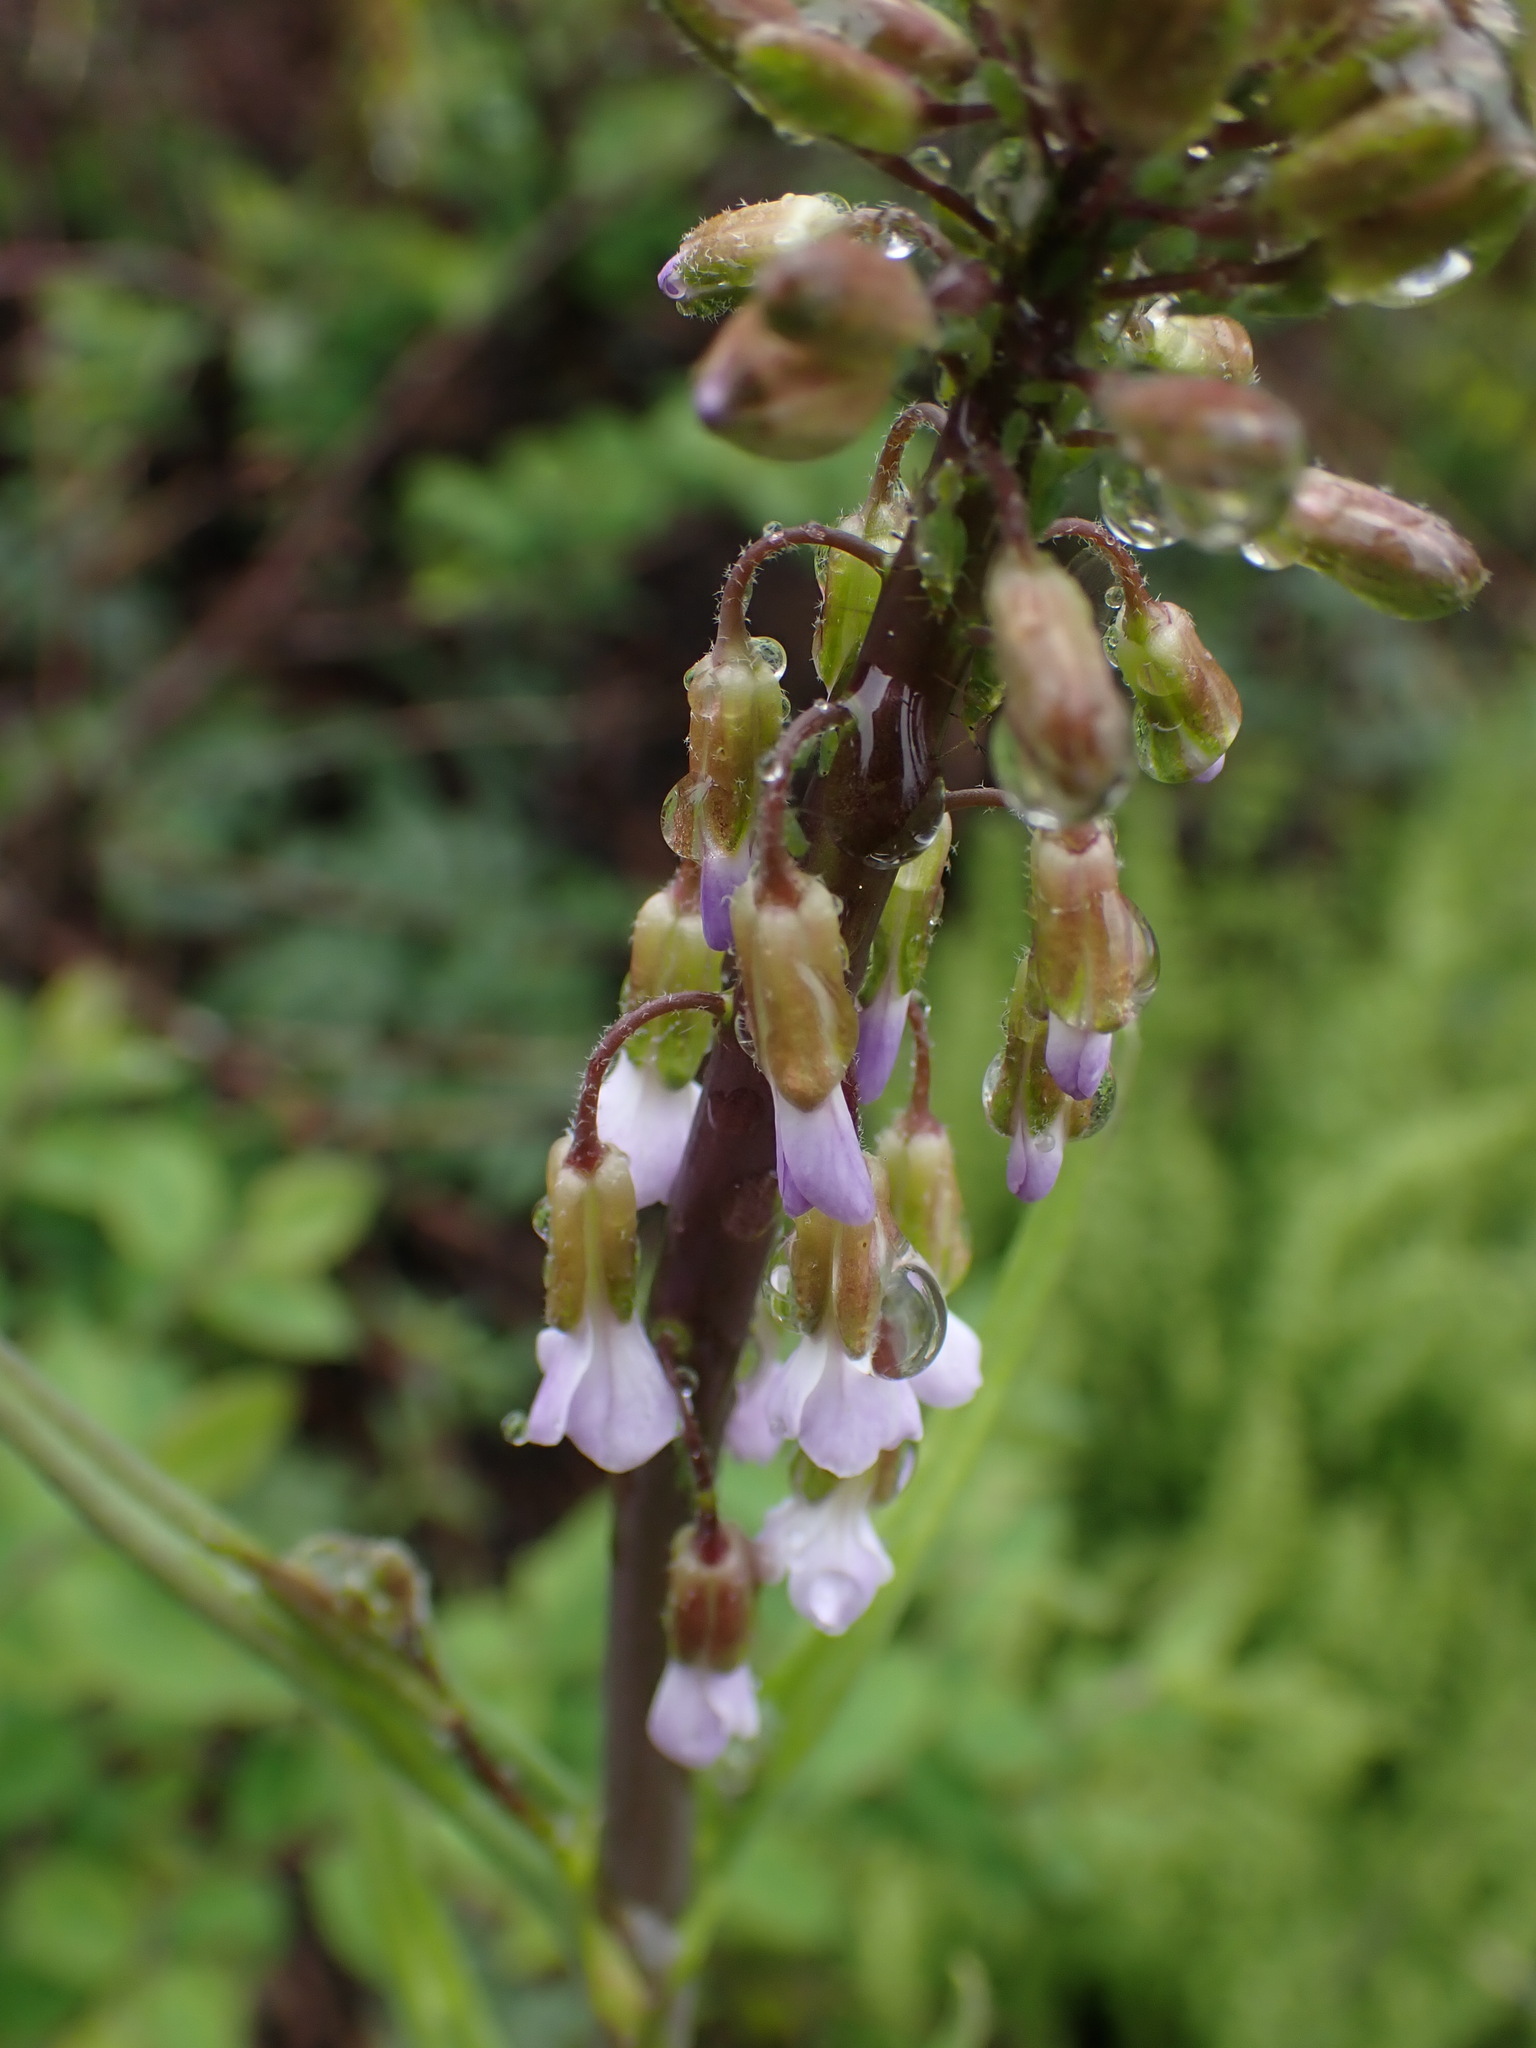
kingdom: Plantae
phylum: Tracheophyta
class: Magnoliopsida
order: Brassicales
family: Brassicaceae
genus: Boechera
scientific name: Boechera retrofracta
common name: Dangling suncress
